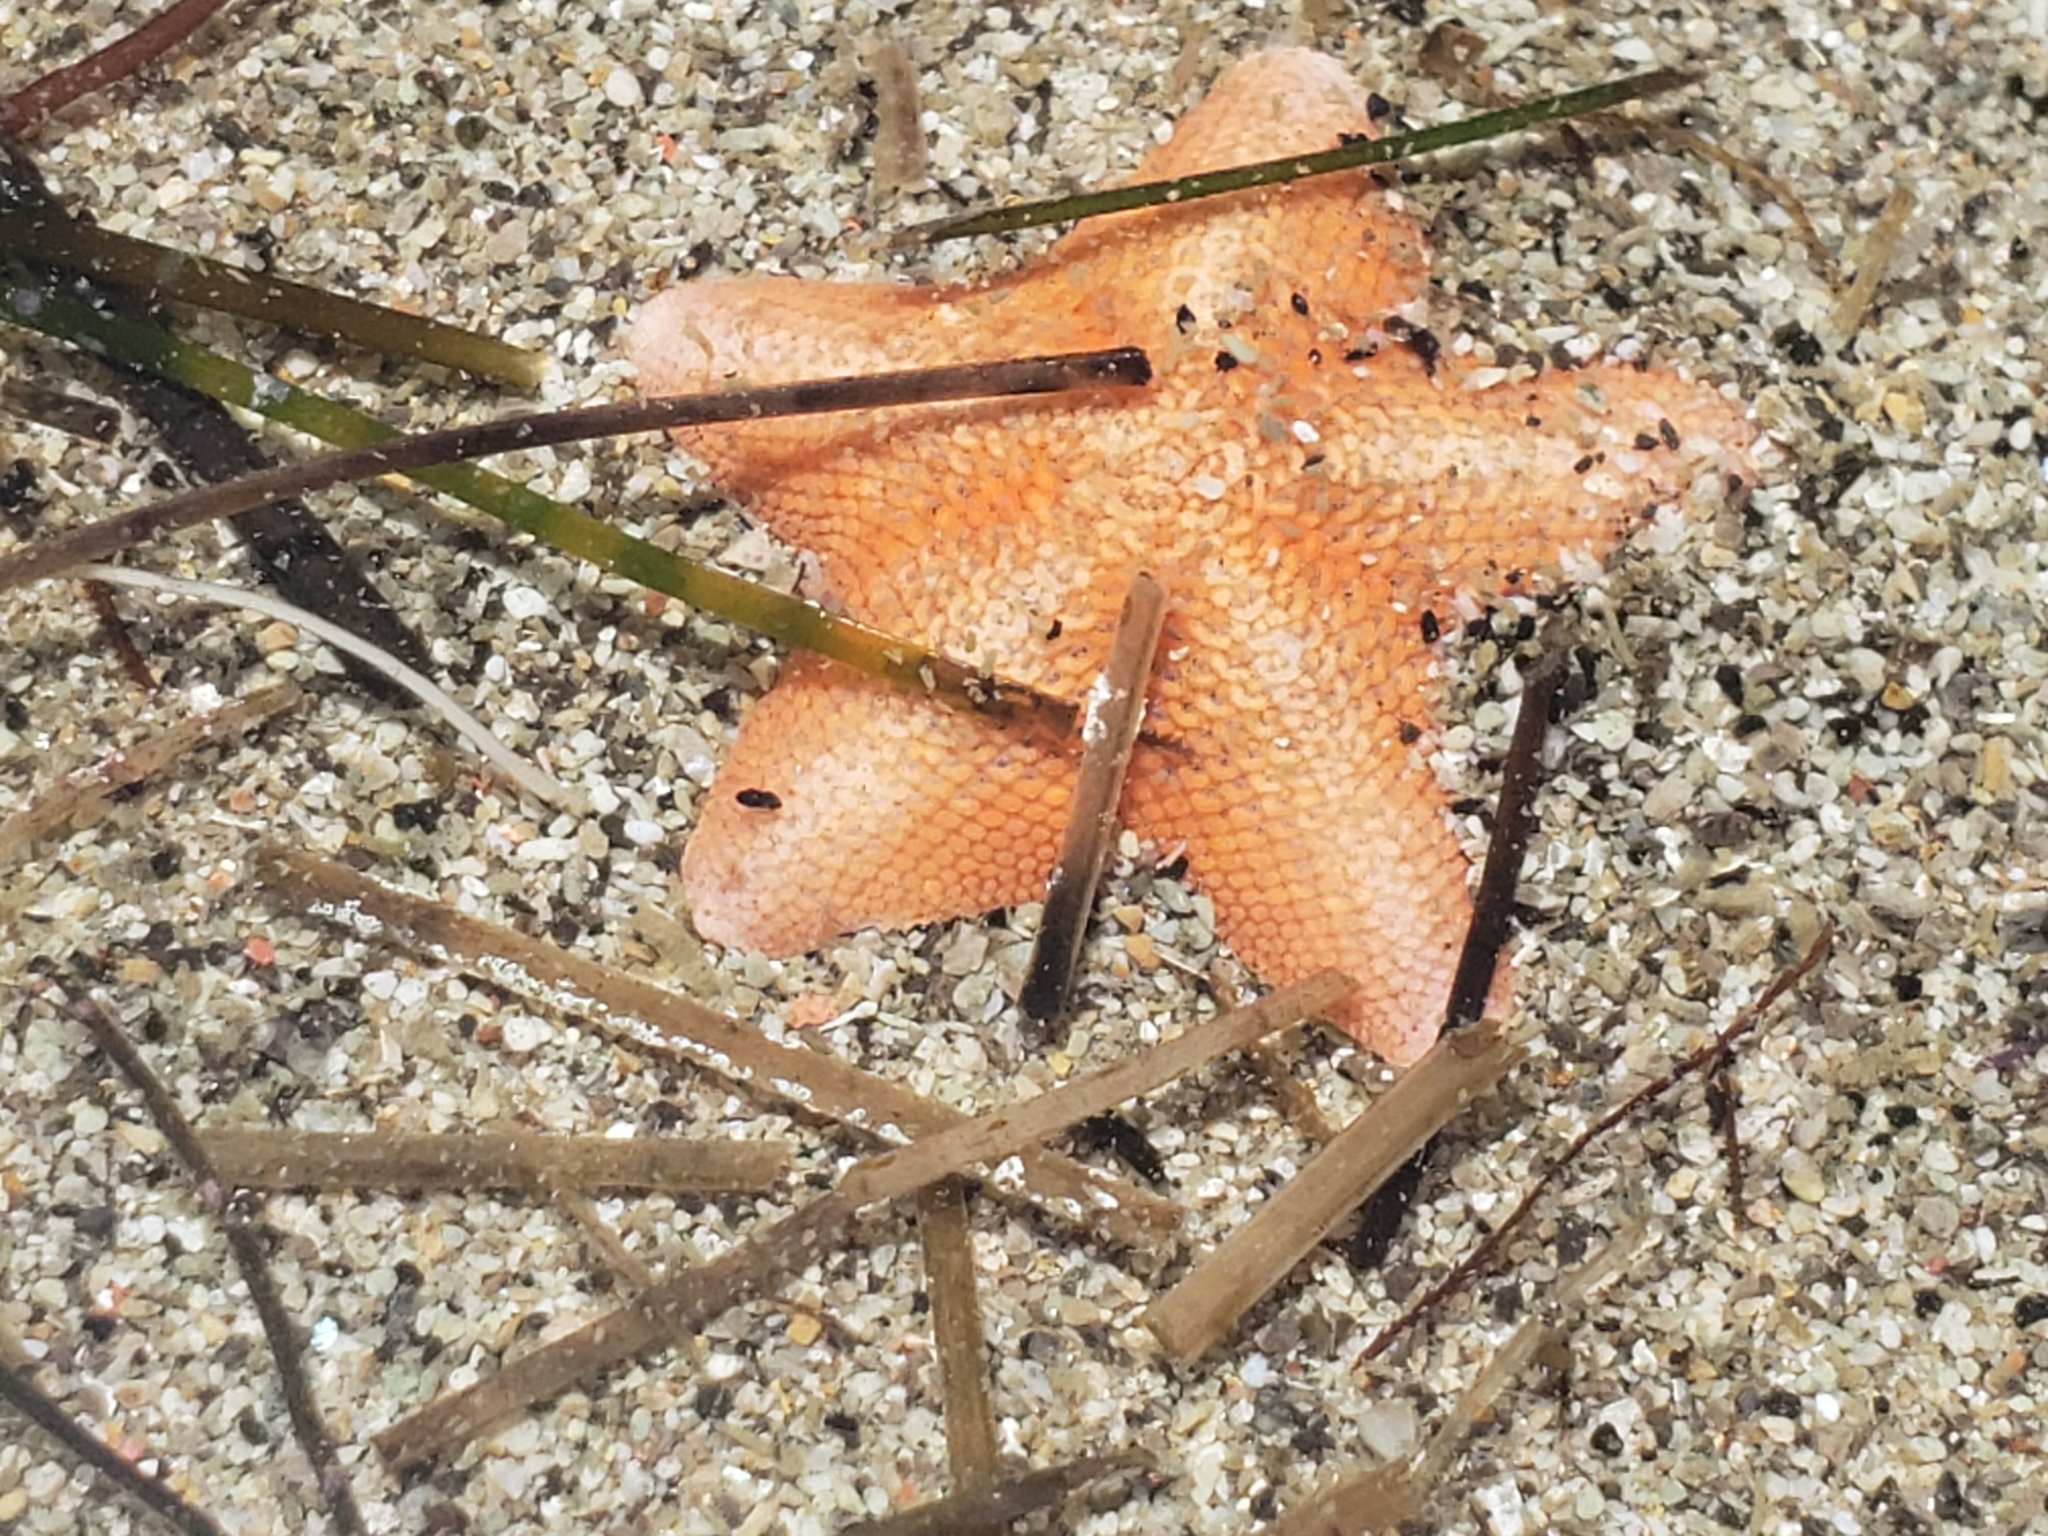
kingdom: Animalia
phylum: Echinodermata
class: Asteroidea
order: Valvatida
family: Asterinidae
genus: Patiria
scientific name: Patiria miniata
